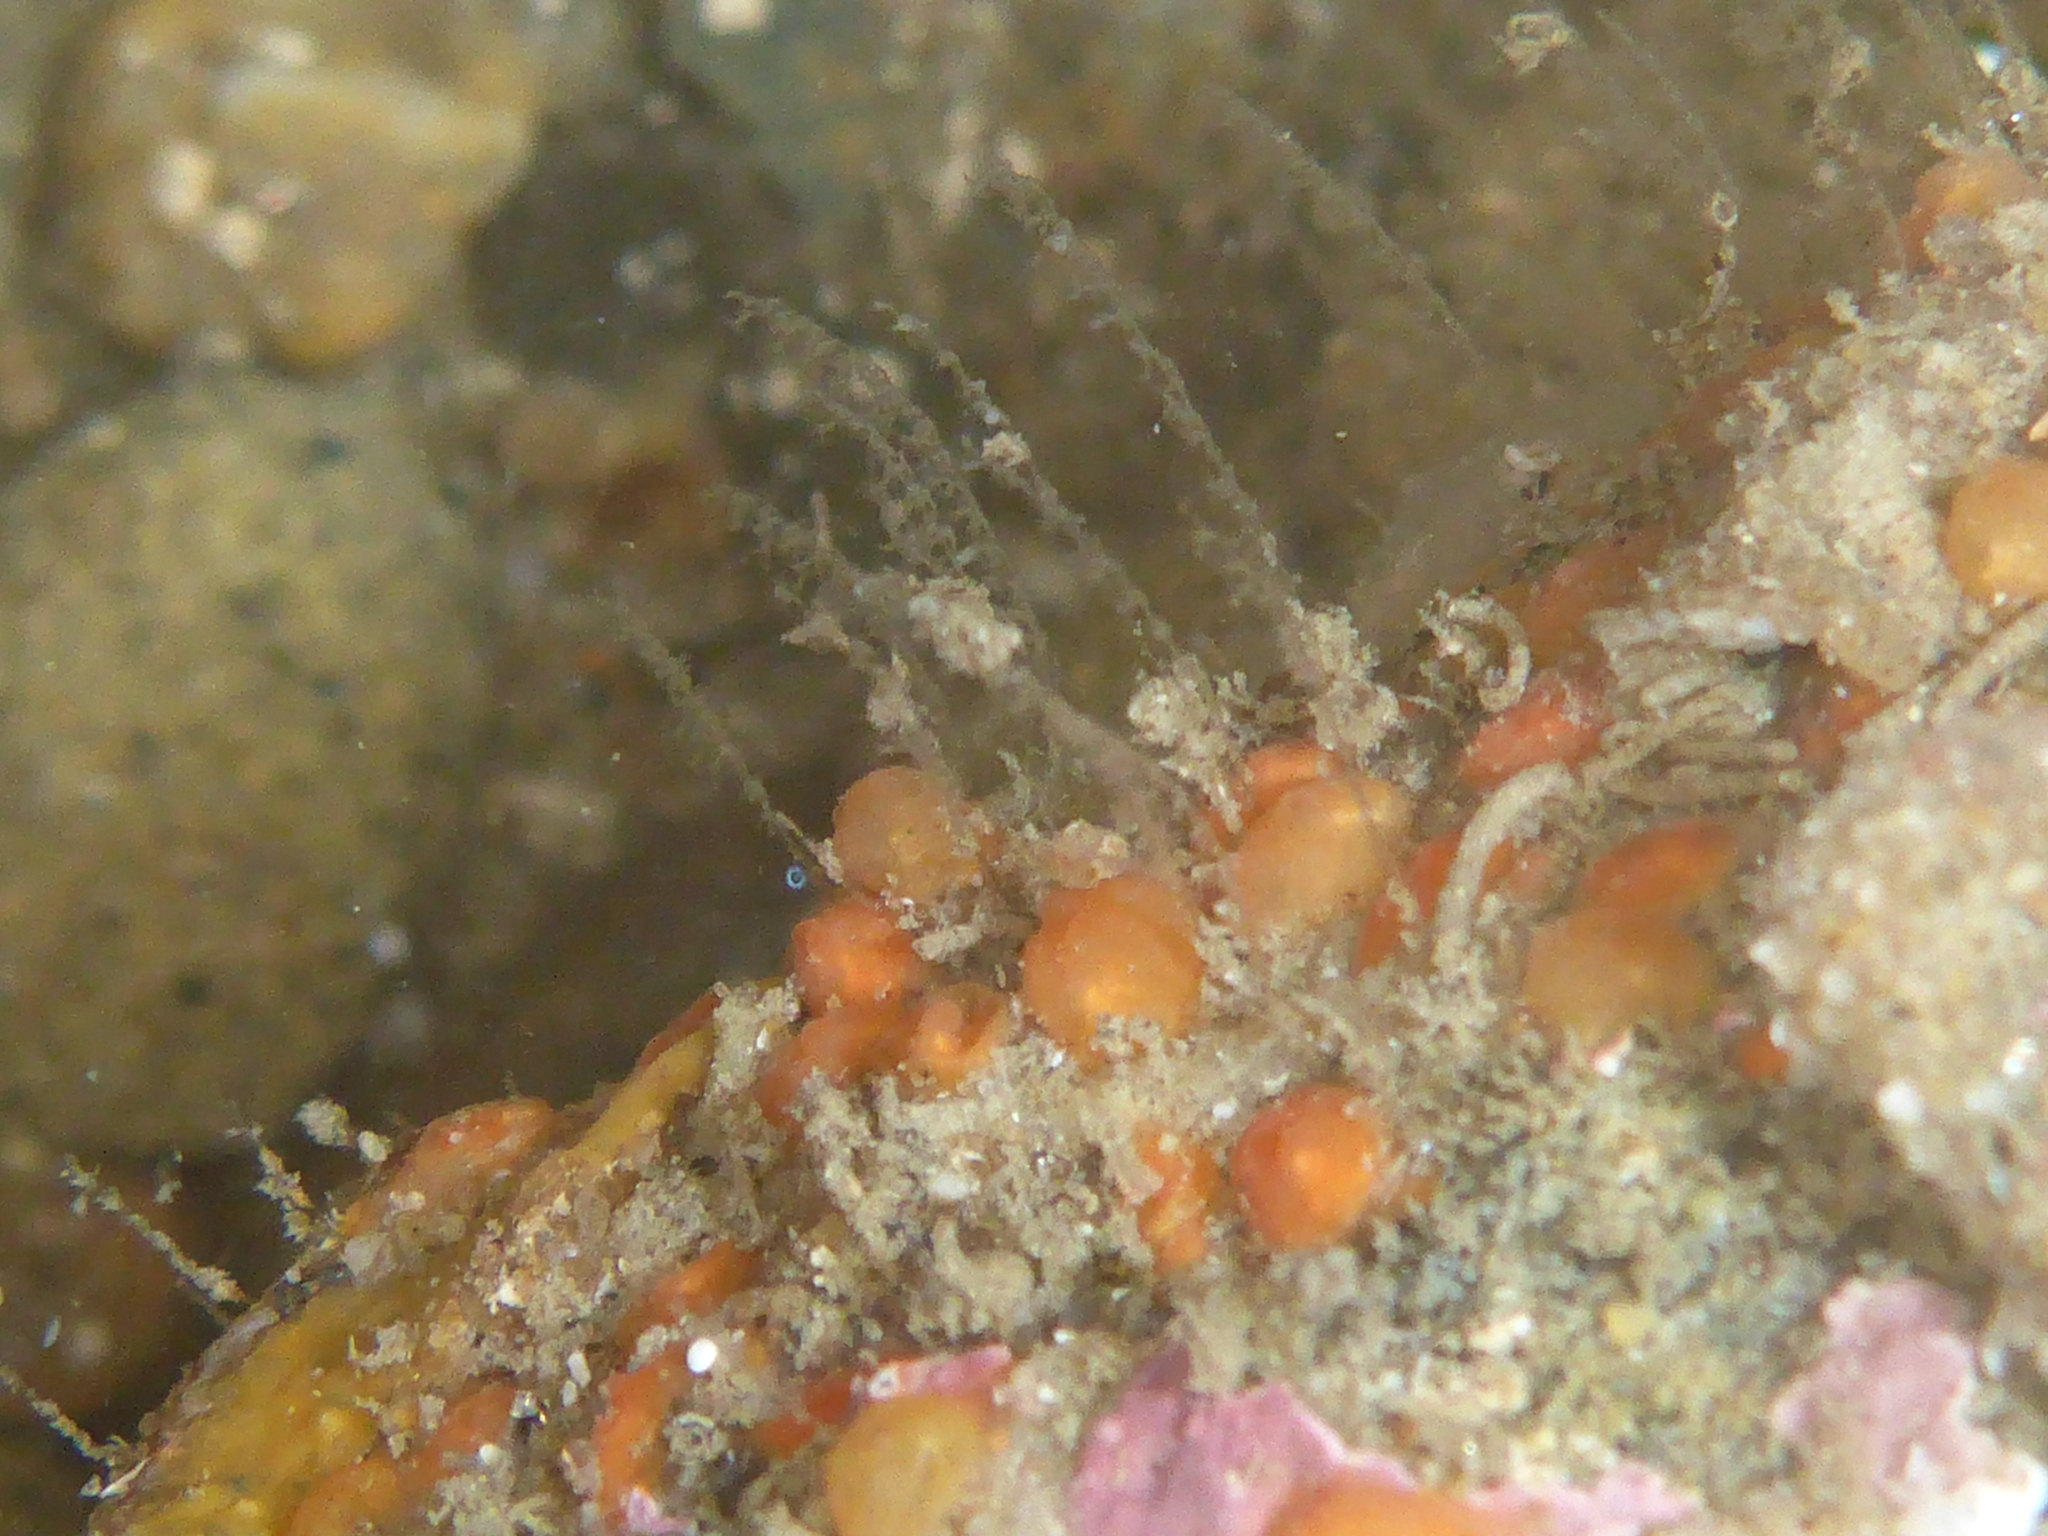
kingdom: Animalia
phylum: Chordata
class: Ascidiacea
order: Stolidobranchia
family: Styelidae
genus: Metandrocarpa
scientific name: Metandrocarpa taylori
